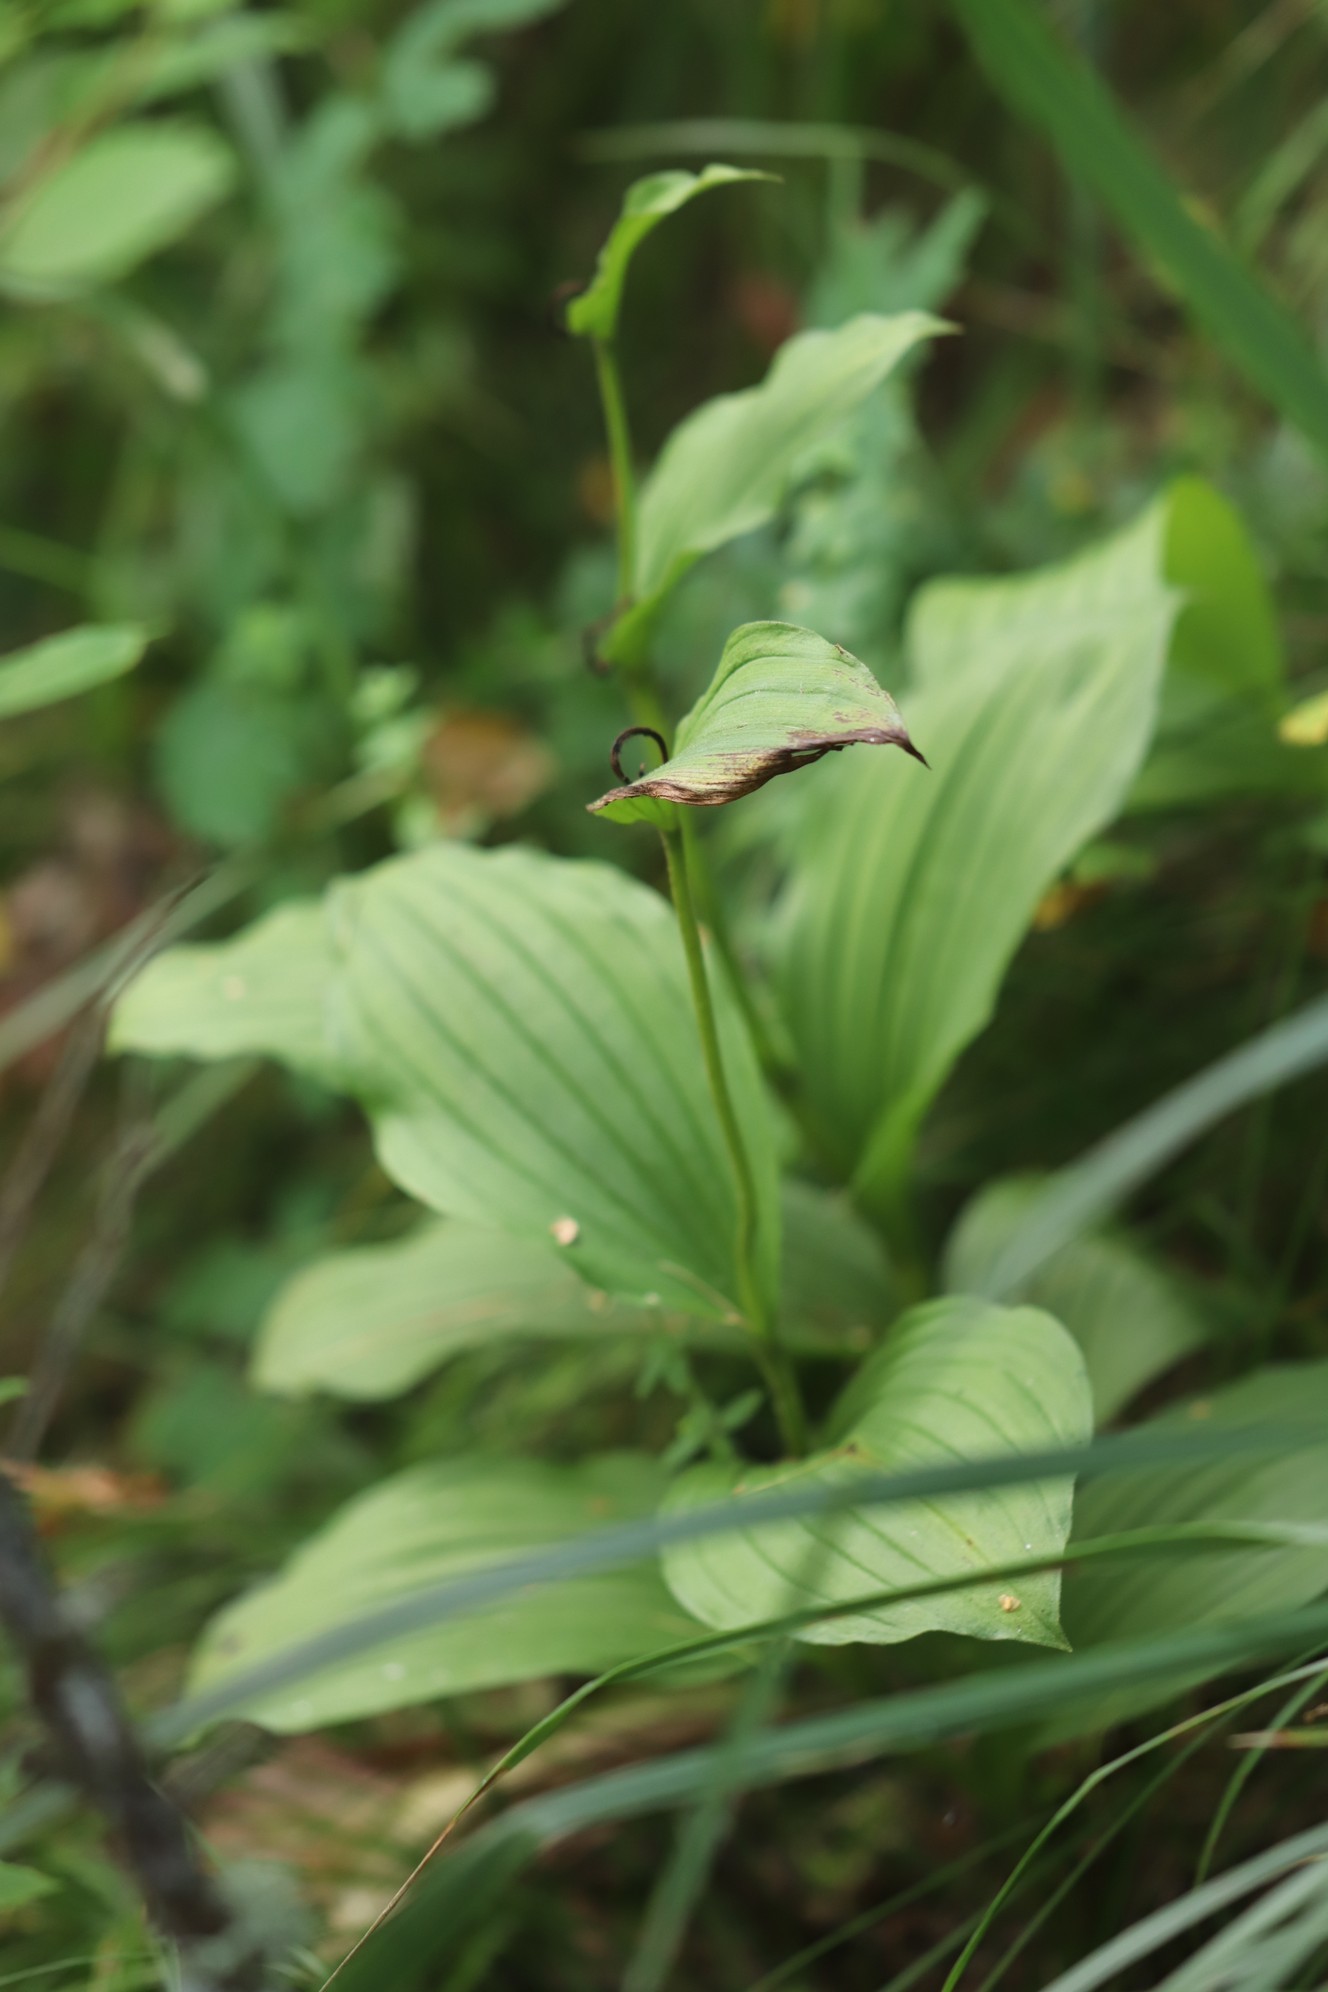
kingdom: Plantae
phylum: Tracheophyta
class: Liliopsida
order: Asparagales
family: Orchidaceae
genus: Cypripedium
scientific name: Cypripedium guttatum
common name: Pink lady slipper
